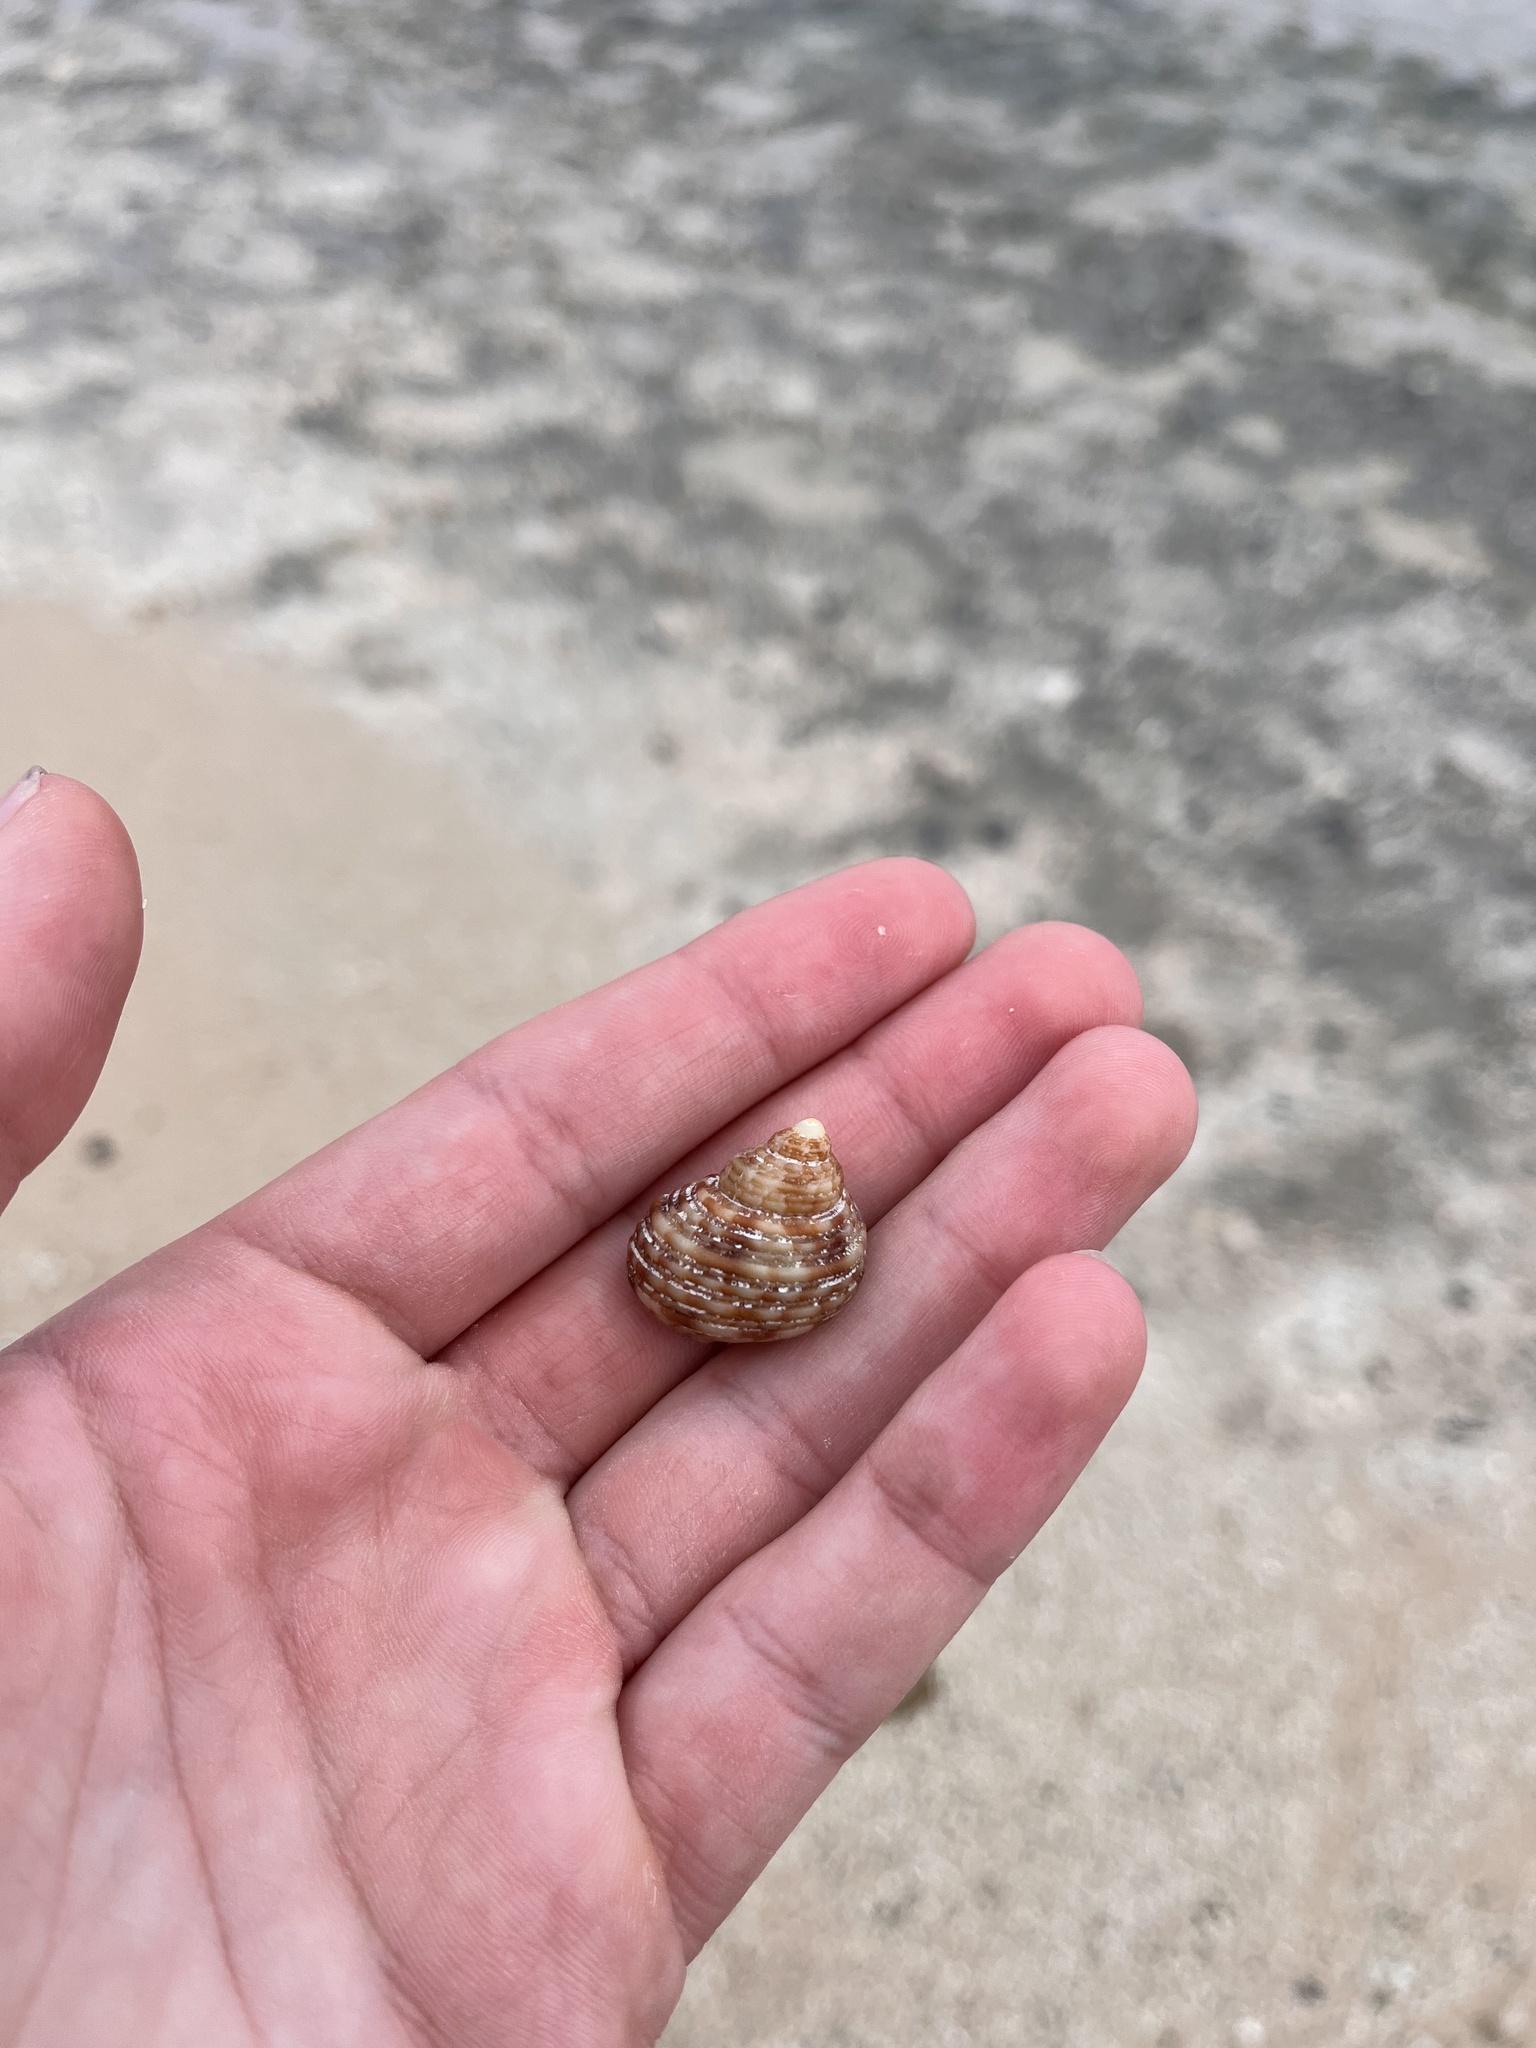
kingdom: Animalia
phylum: Mollusca
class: Gastropoda
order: Trochida
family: Turbinidae
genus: Turbo
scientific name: Turbo sandwicensis
